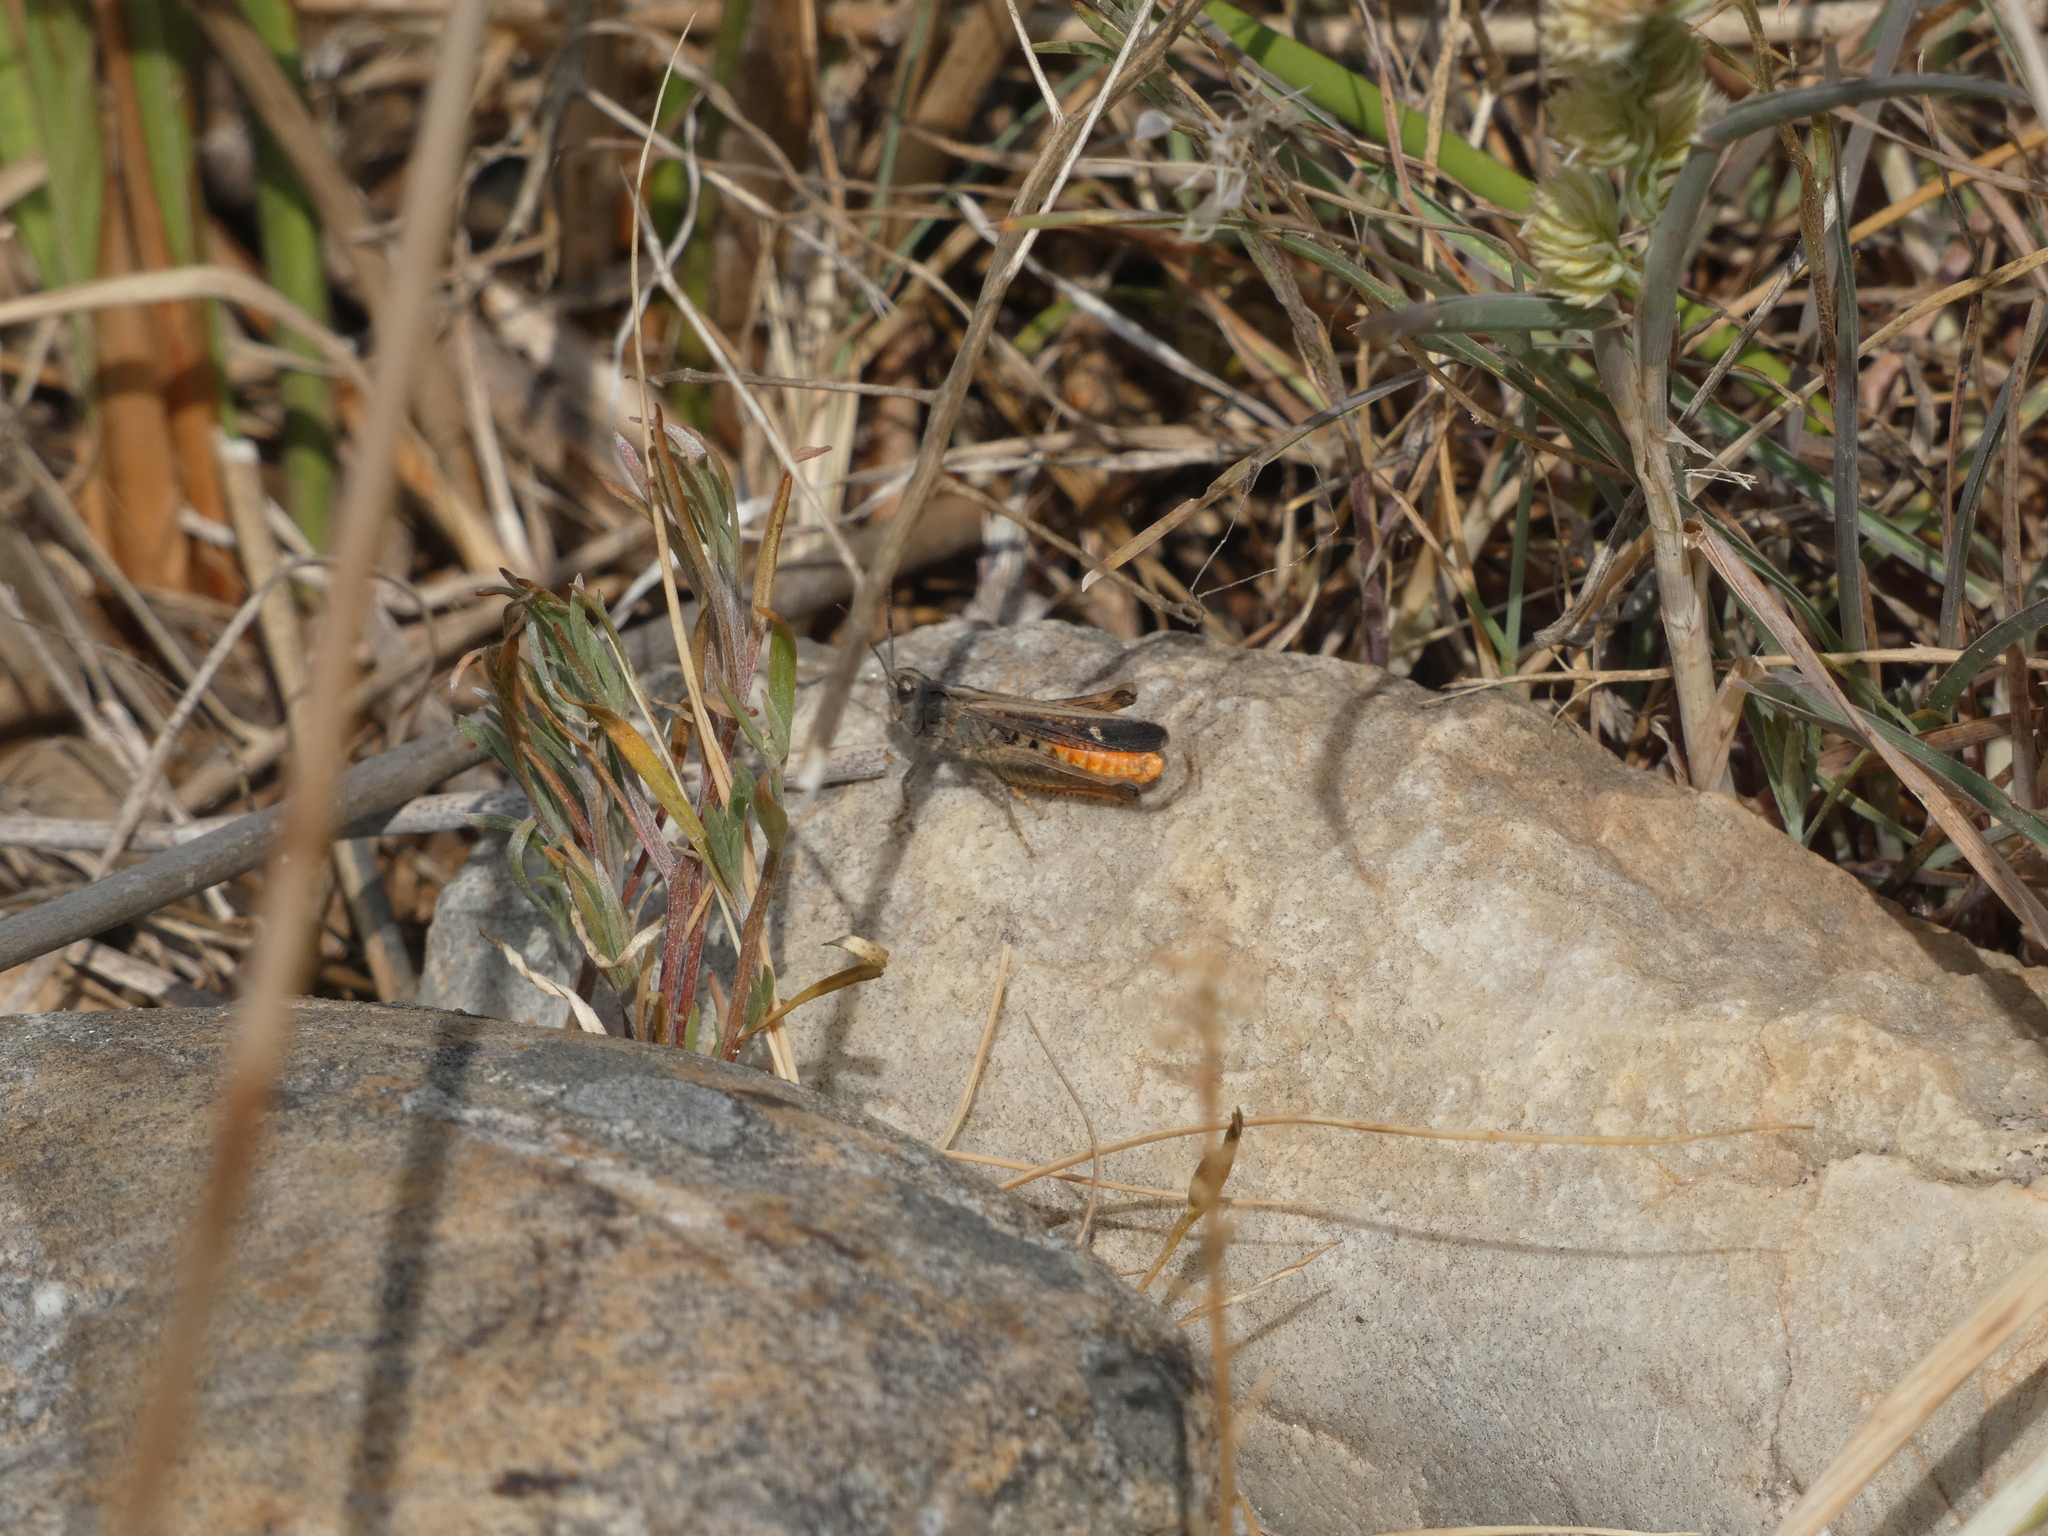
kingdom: Animalia
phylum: Arthropoda
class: Insecta
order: Orthoptera
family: Acrididae
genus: Omocestus
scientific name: Omocestus raymondi
